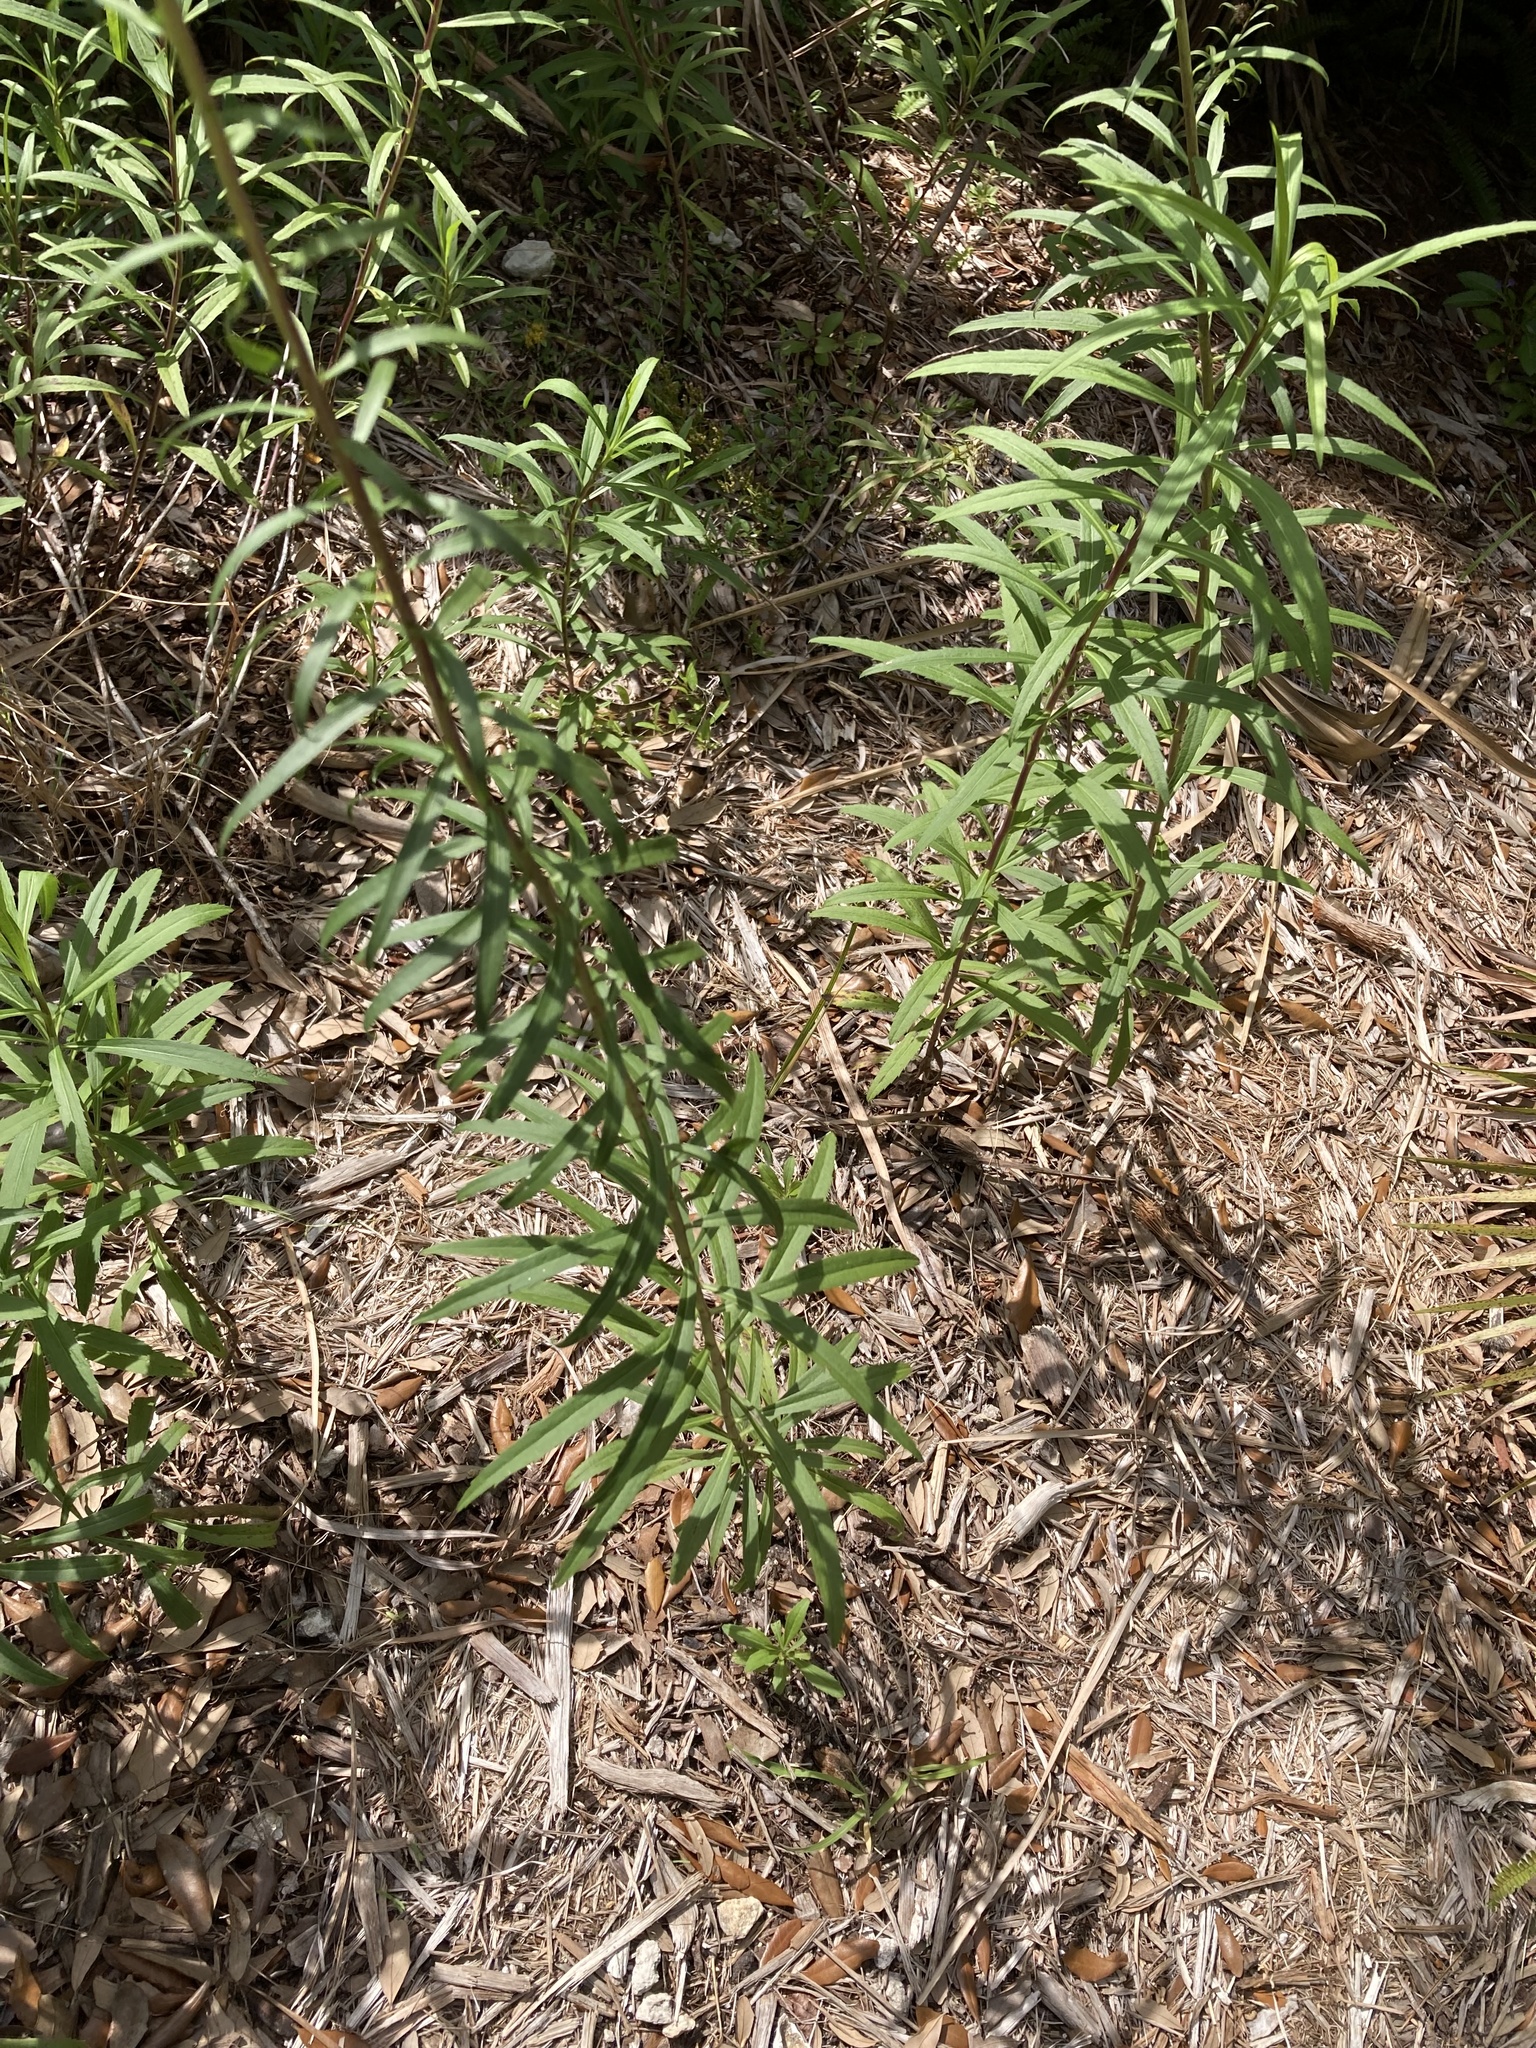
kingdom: Plantae
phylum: Tracheophyta
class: Magnoliopsida
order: Asterales
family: Asteraceae
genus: Solidago
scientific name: Solidago leavenworthii
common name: Leavenworth's goldenrod
